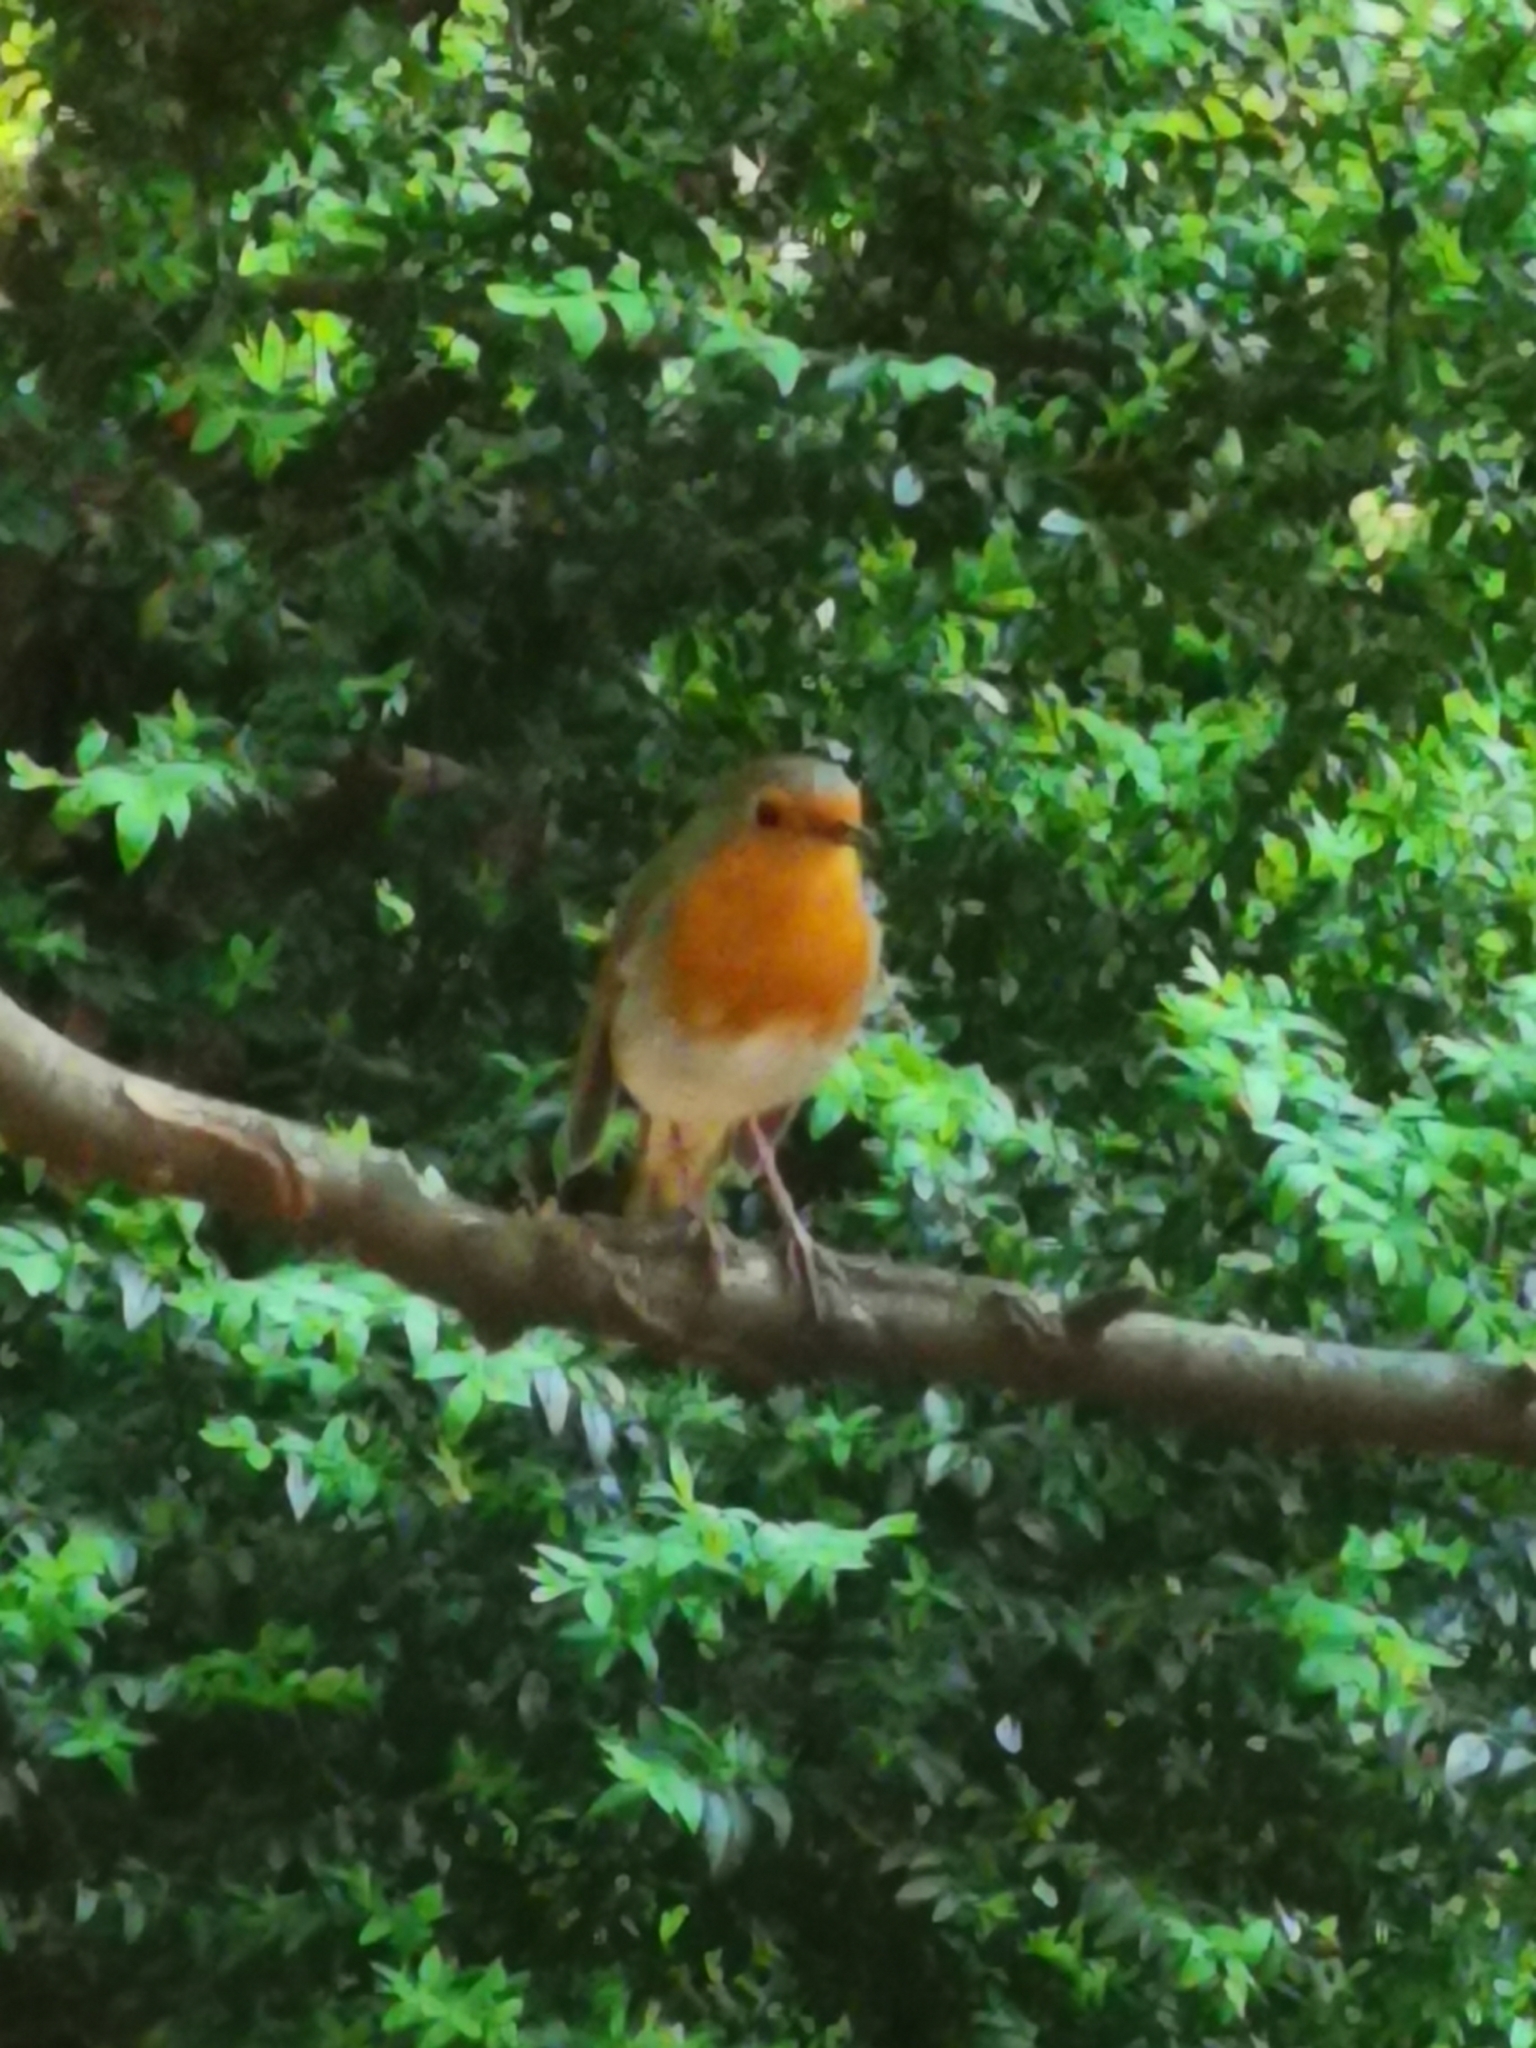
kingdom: Animalia
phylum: Chordata
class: Aves
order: Passeriformes
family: Muscicapidae
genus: Erithacus
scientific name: Erithacus rubecula
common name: European robin
